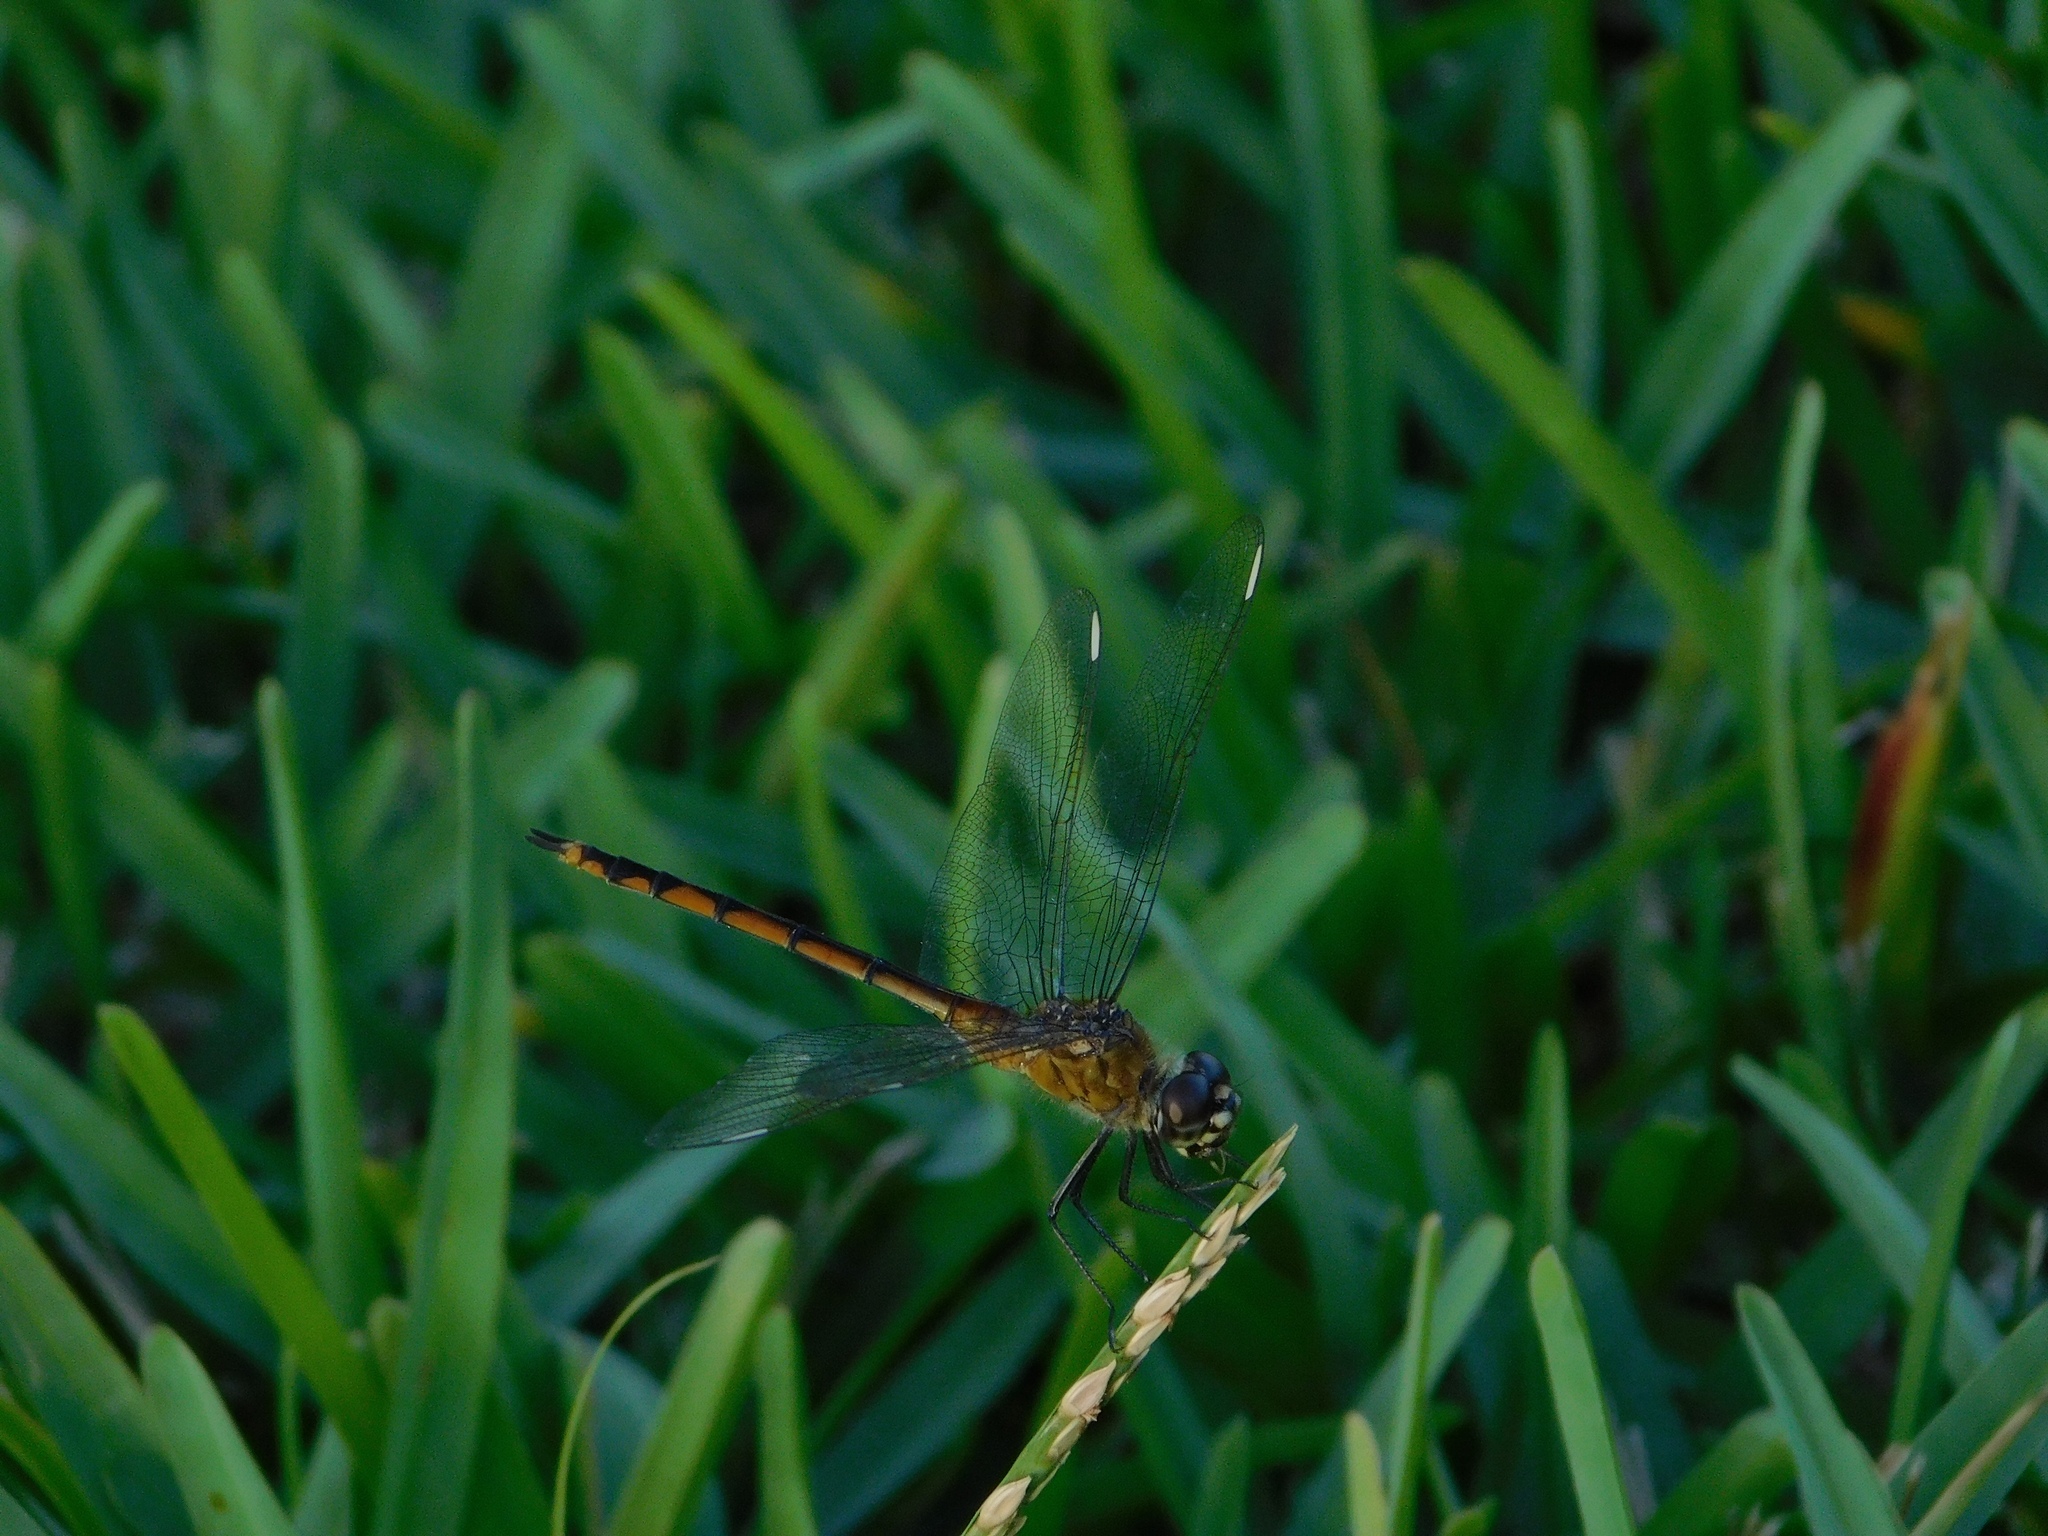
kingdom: Animalia
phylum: Arthropoda
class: Insecta
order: Odonata
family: Libellulidae
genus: Brachymesia
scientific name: Brachymesia gravida
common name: Four-spotted pennant
